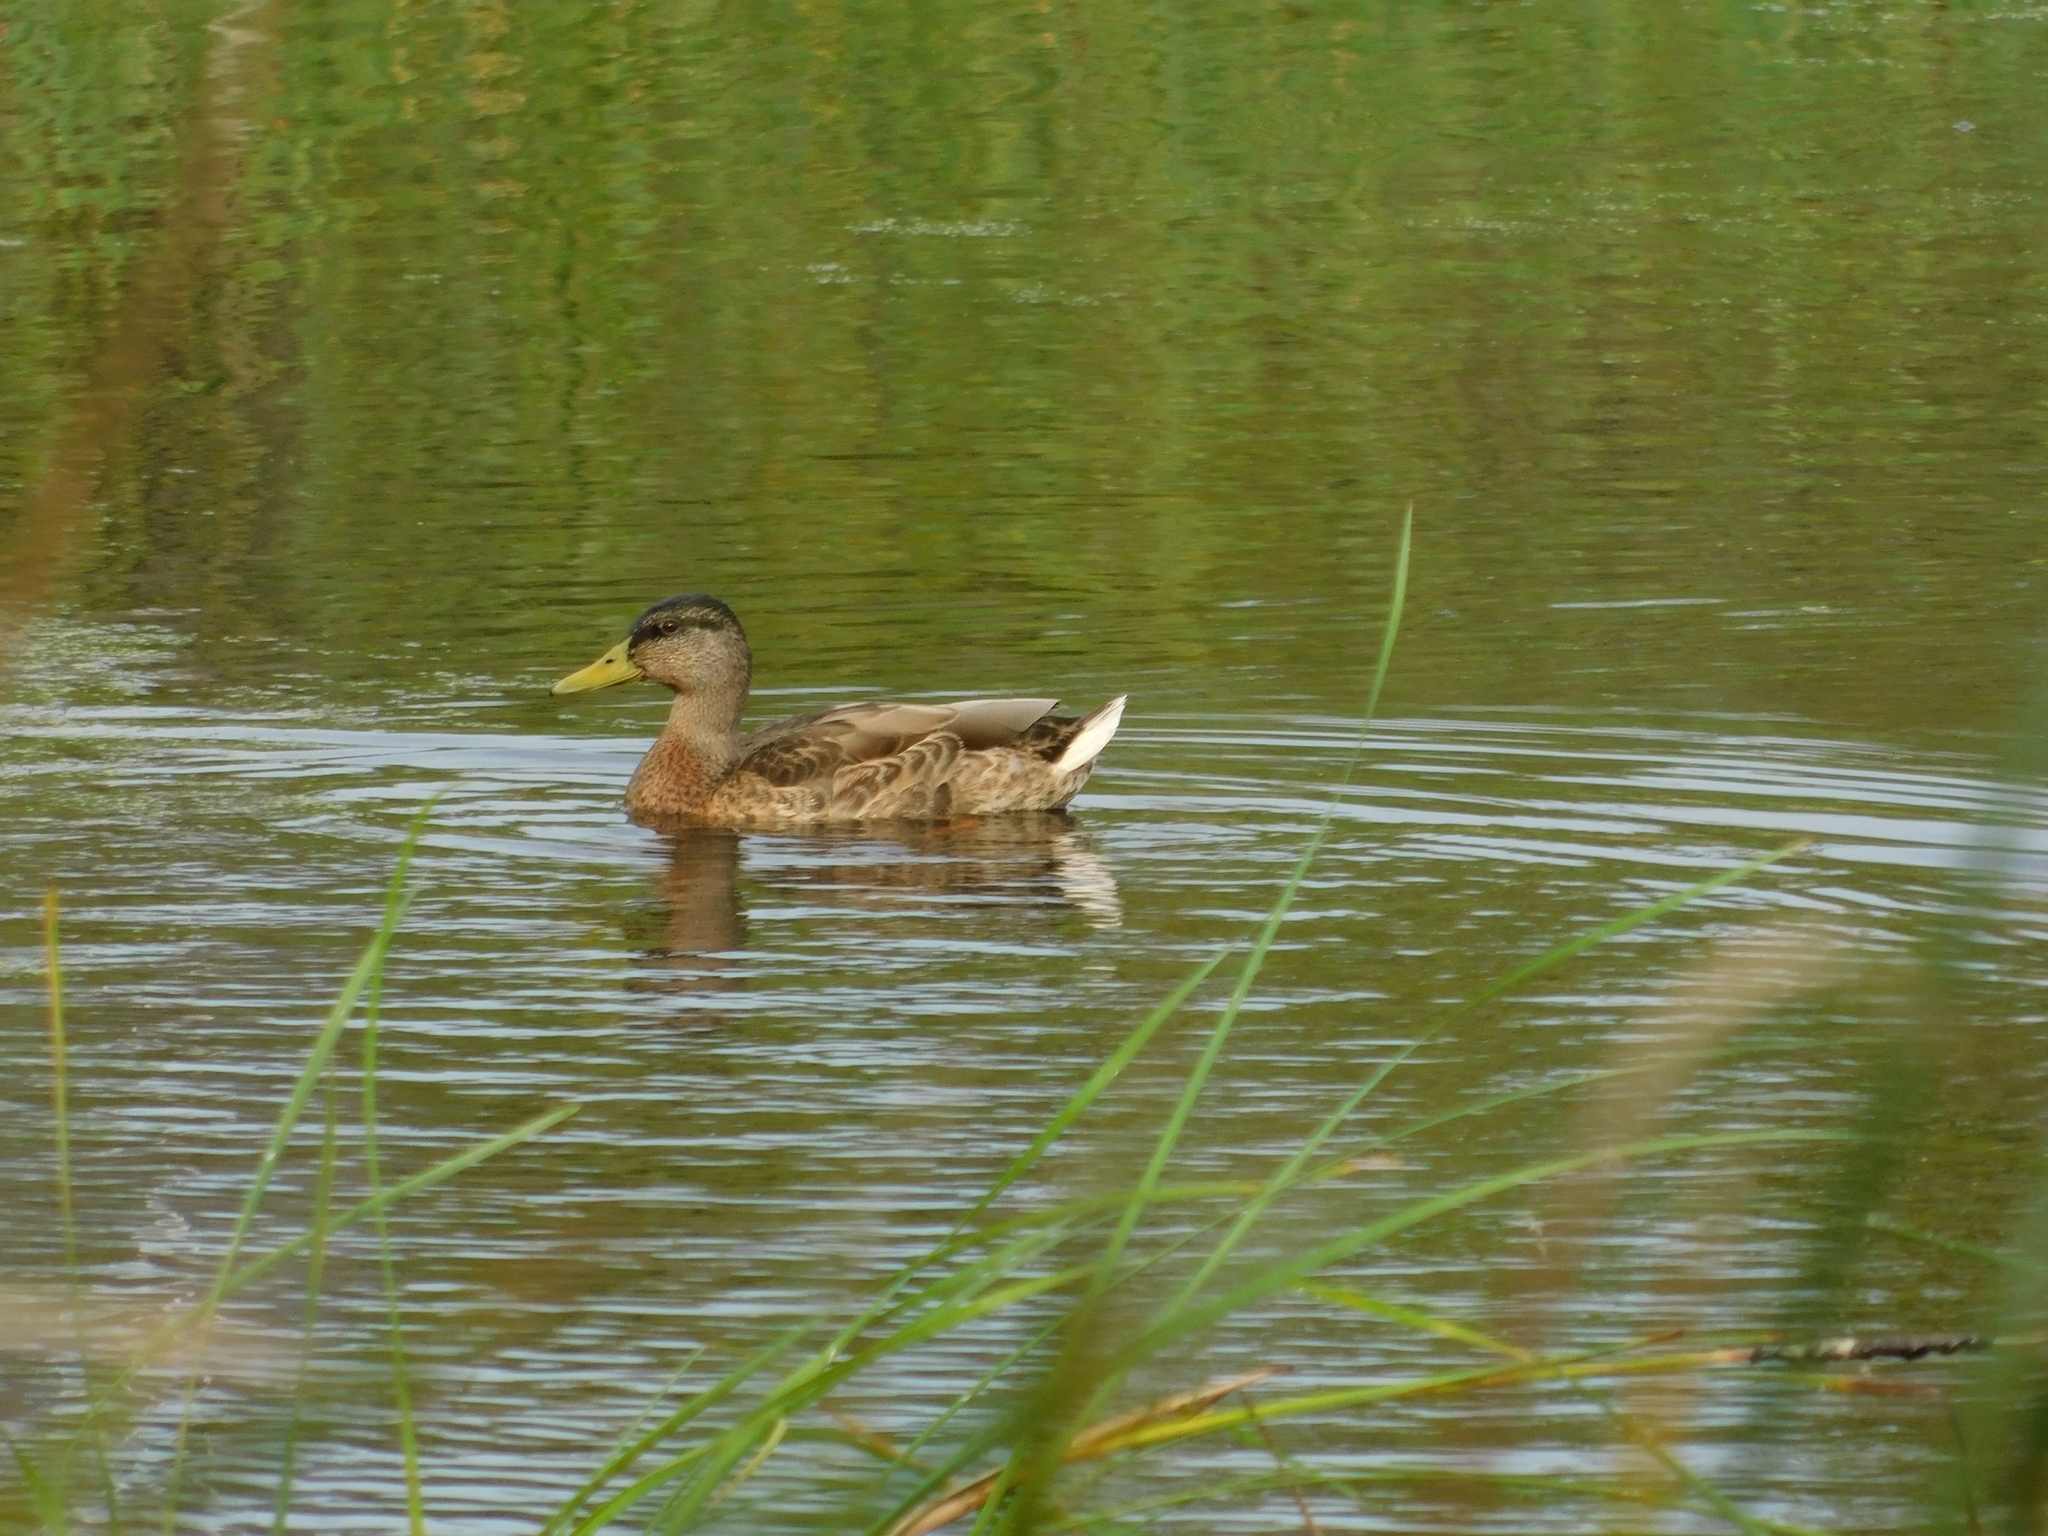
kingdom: Animalia
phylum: Chordata
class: Aves
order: Anseriformes
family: Anatidae
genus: Anas
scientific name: Anas platyrhynchos
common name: Mallard
